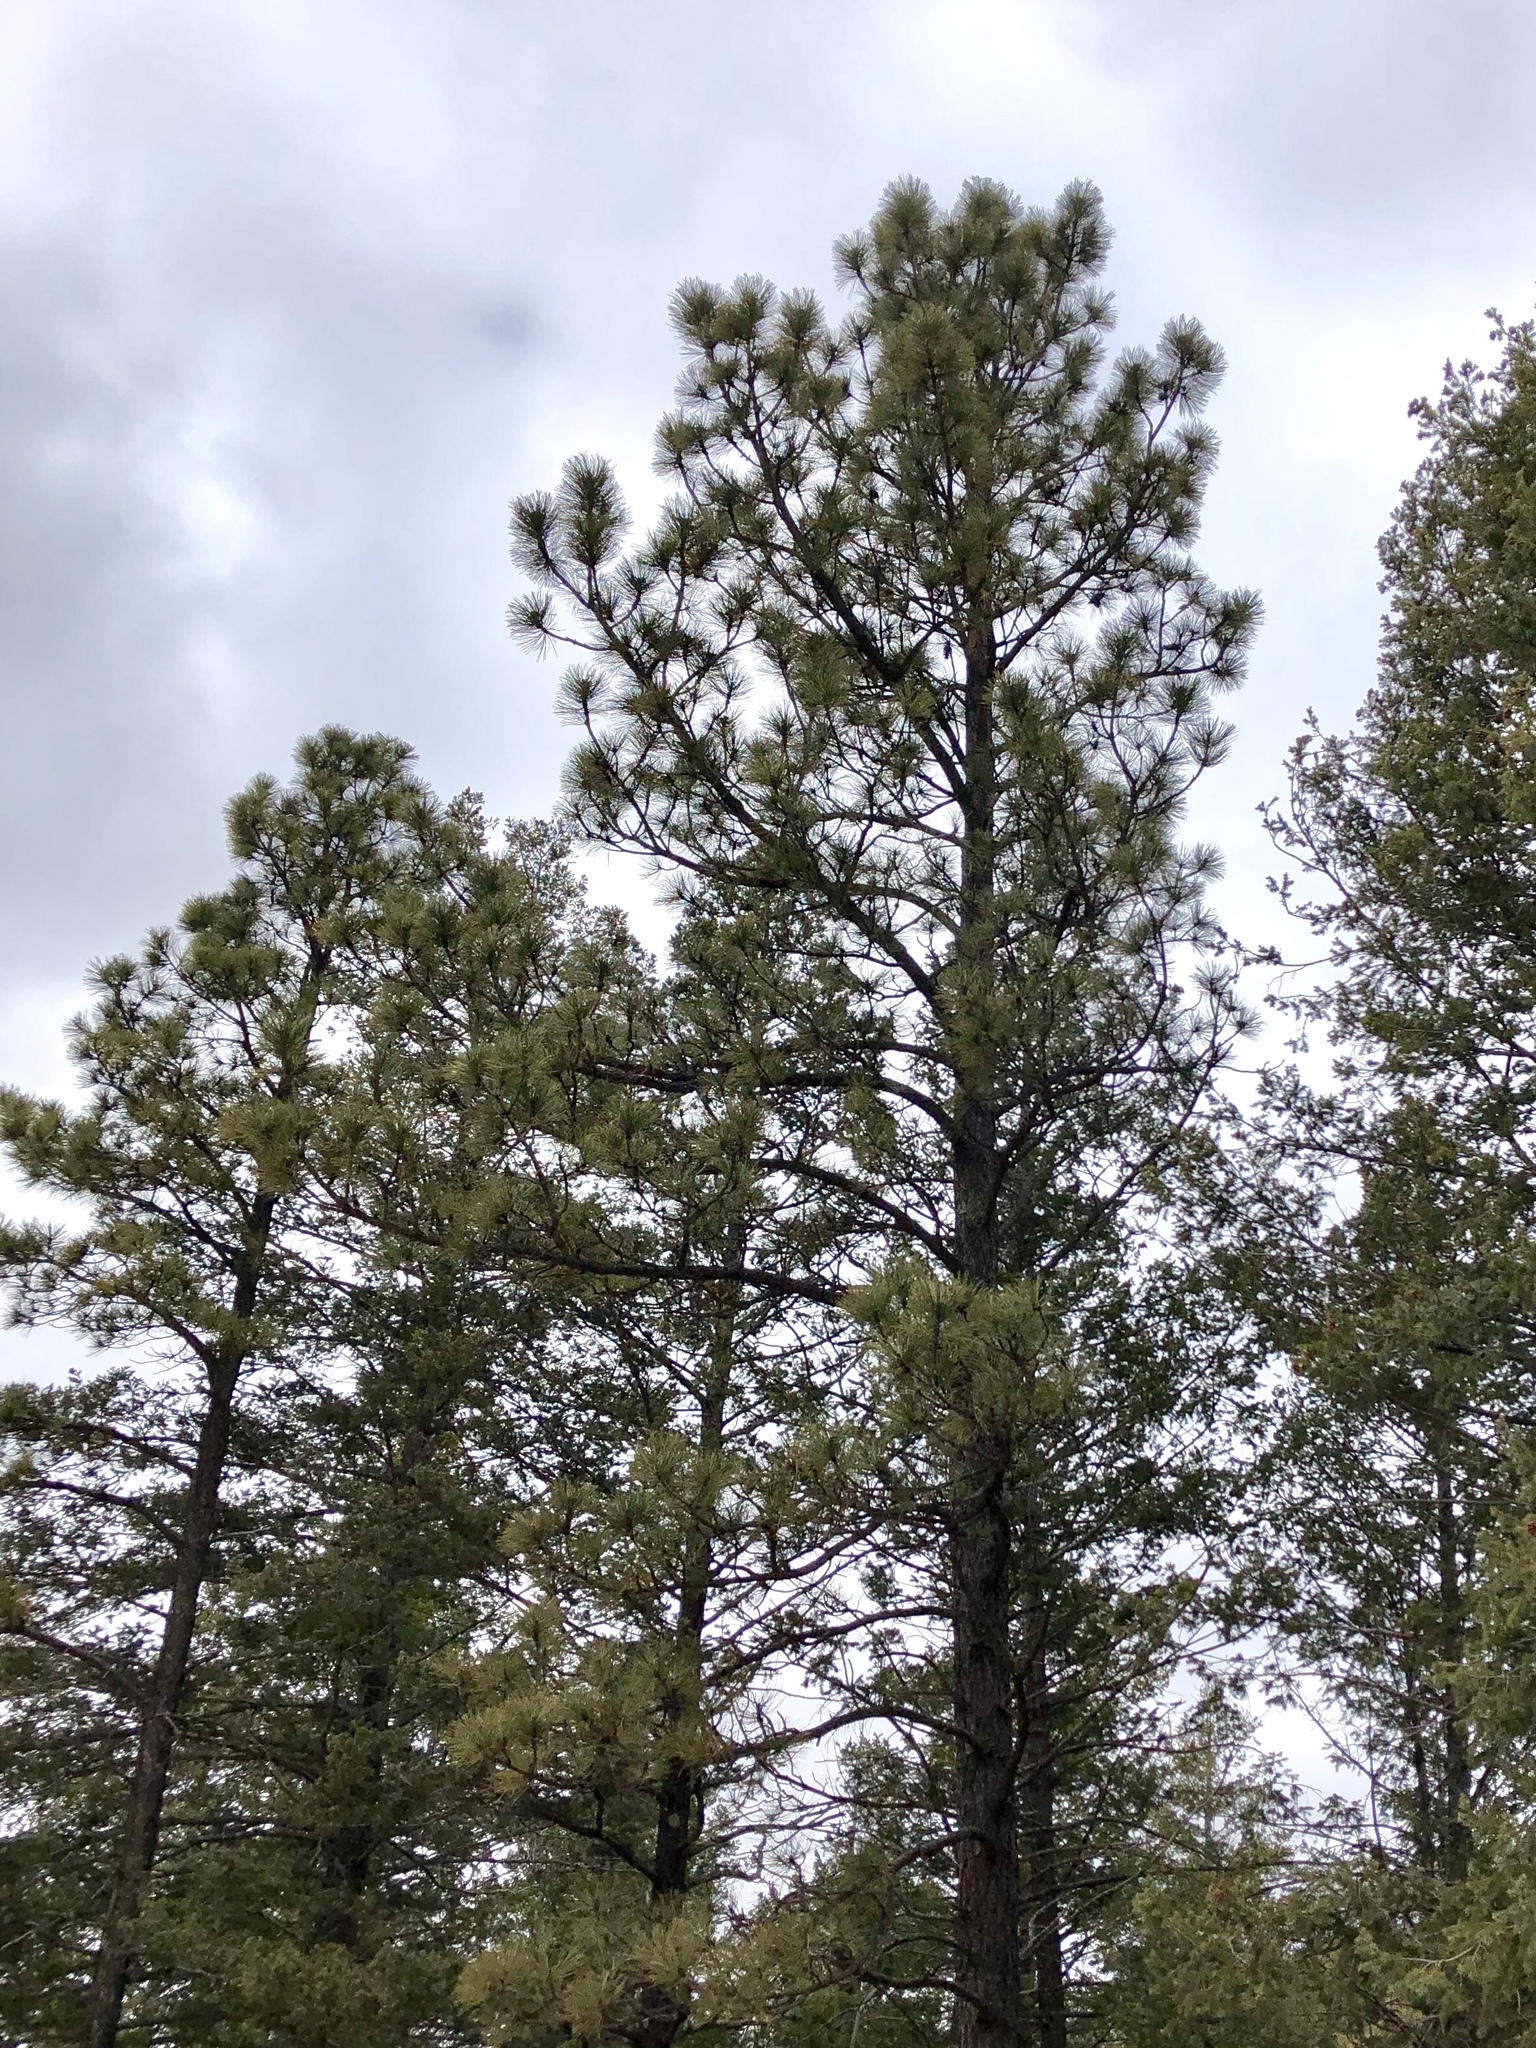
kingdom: Plantae
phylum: Tracheophyta
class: Pinopsida
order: Pinales
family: Pinaceae
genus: Pinus
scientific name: Pinus ponderosa
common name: Western yellow-pine
